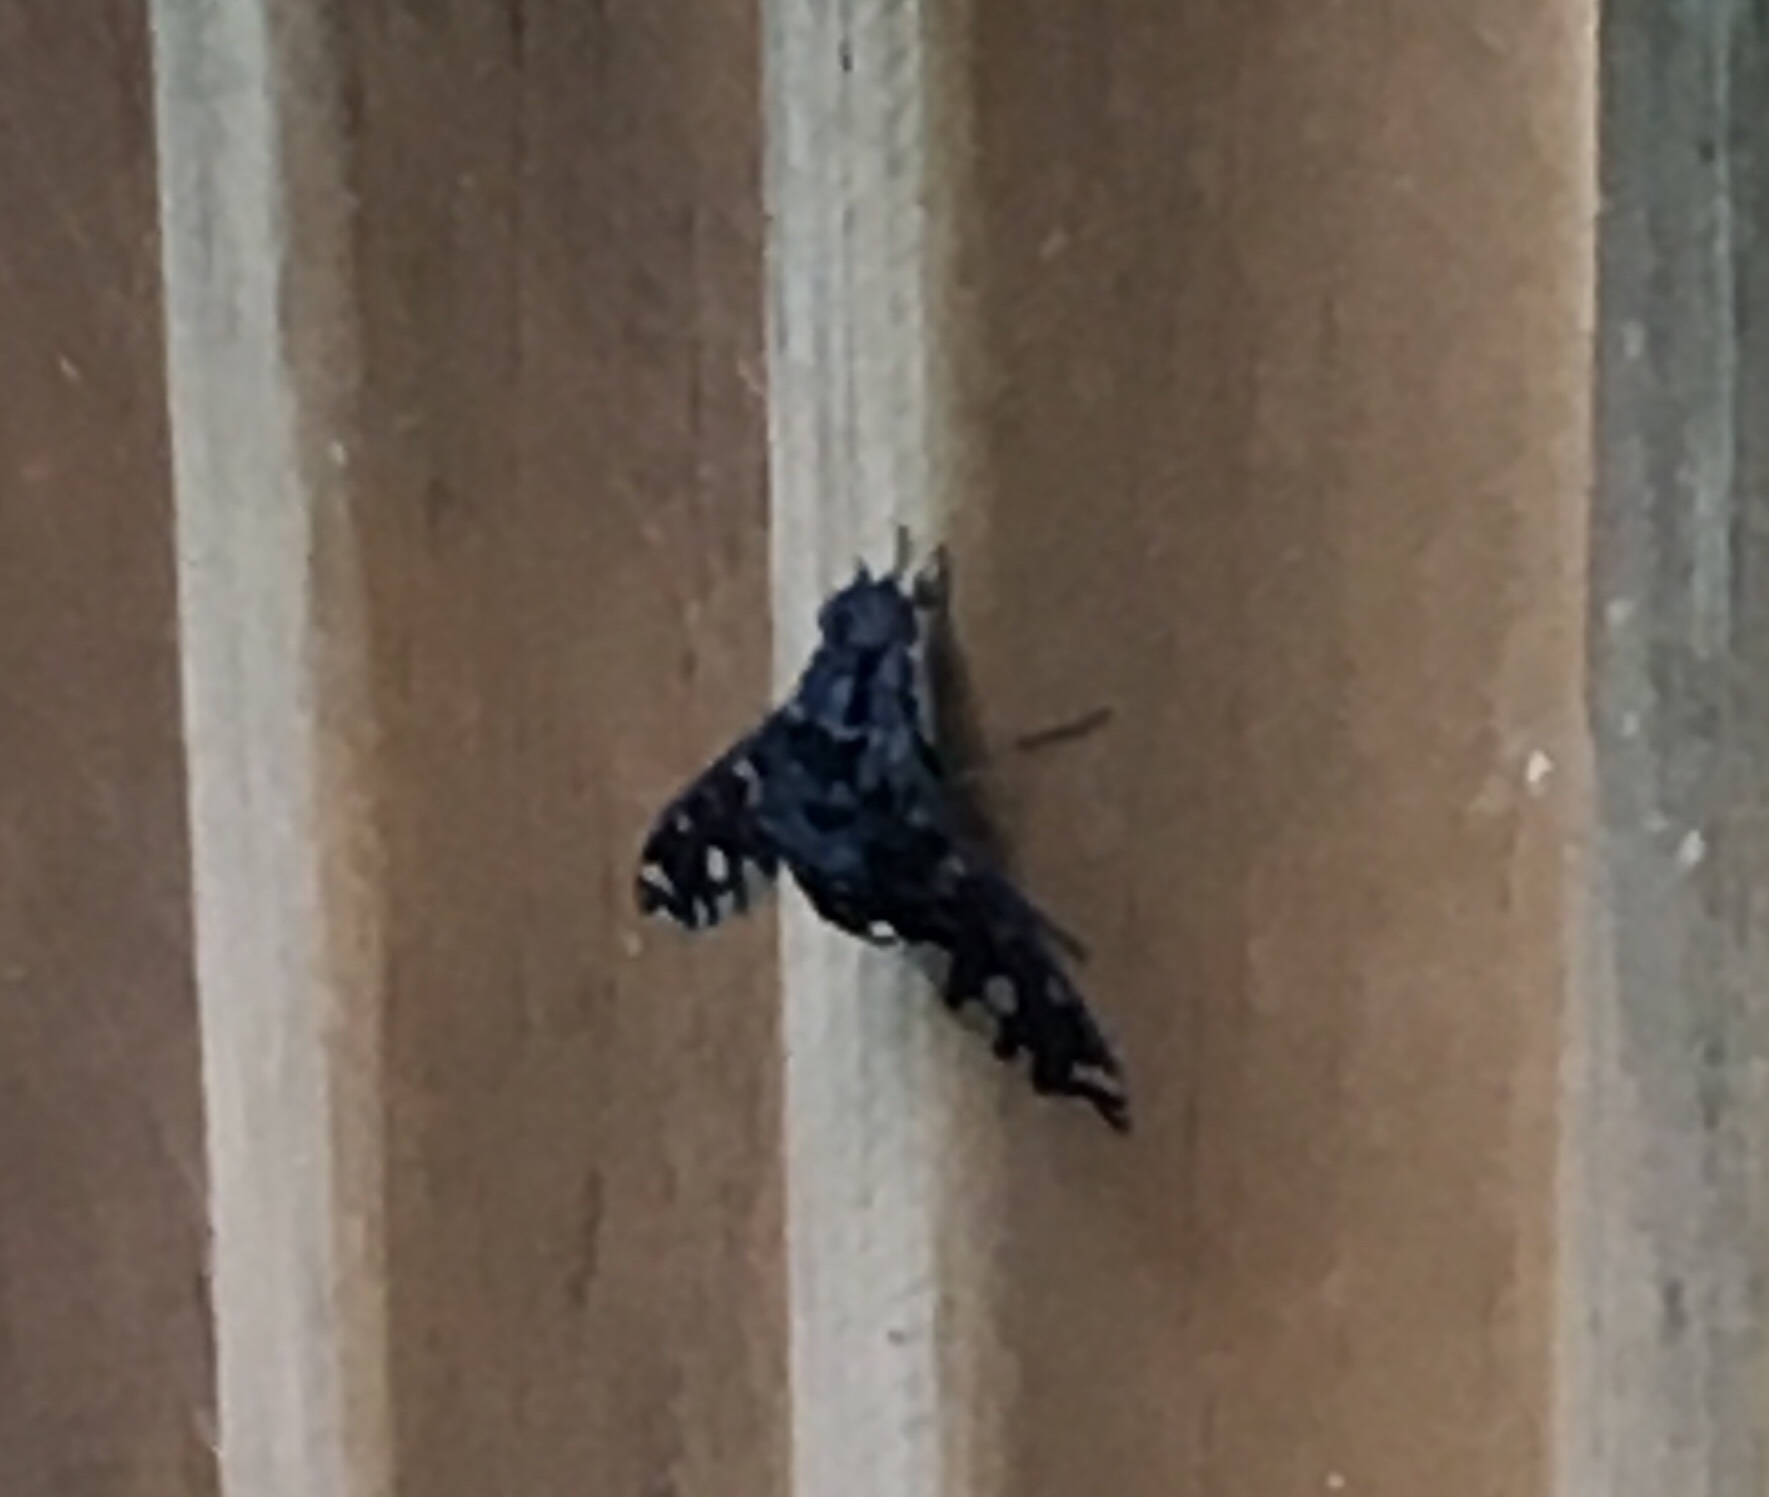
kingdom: Animalia
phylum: Arthropoda
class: Insecta
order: Diptera
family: Bombyliidae
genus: Xenox
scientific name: Xenox tigrinus
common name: Tiger bee fly
